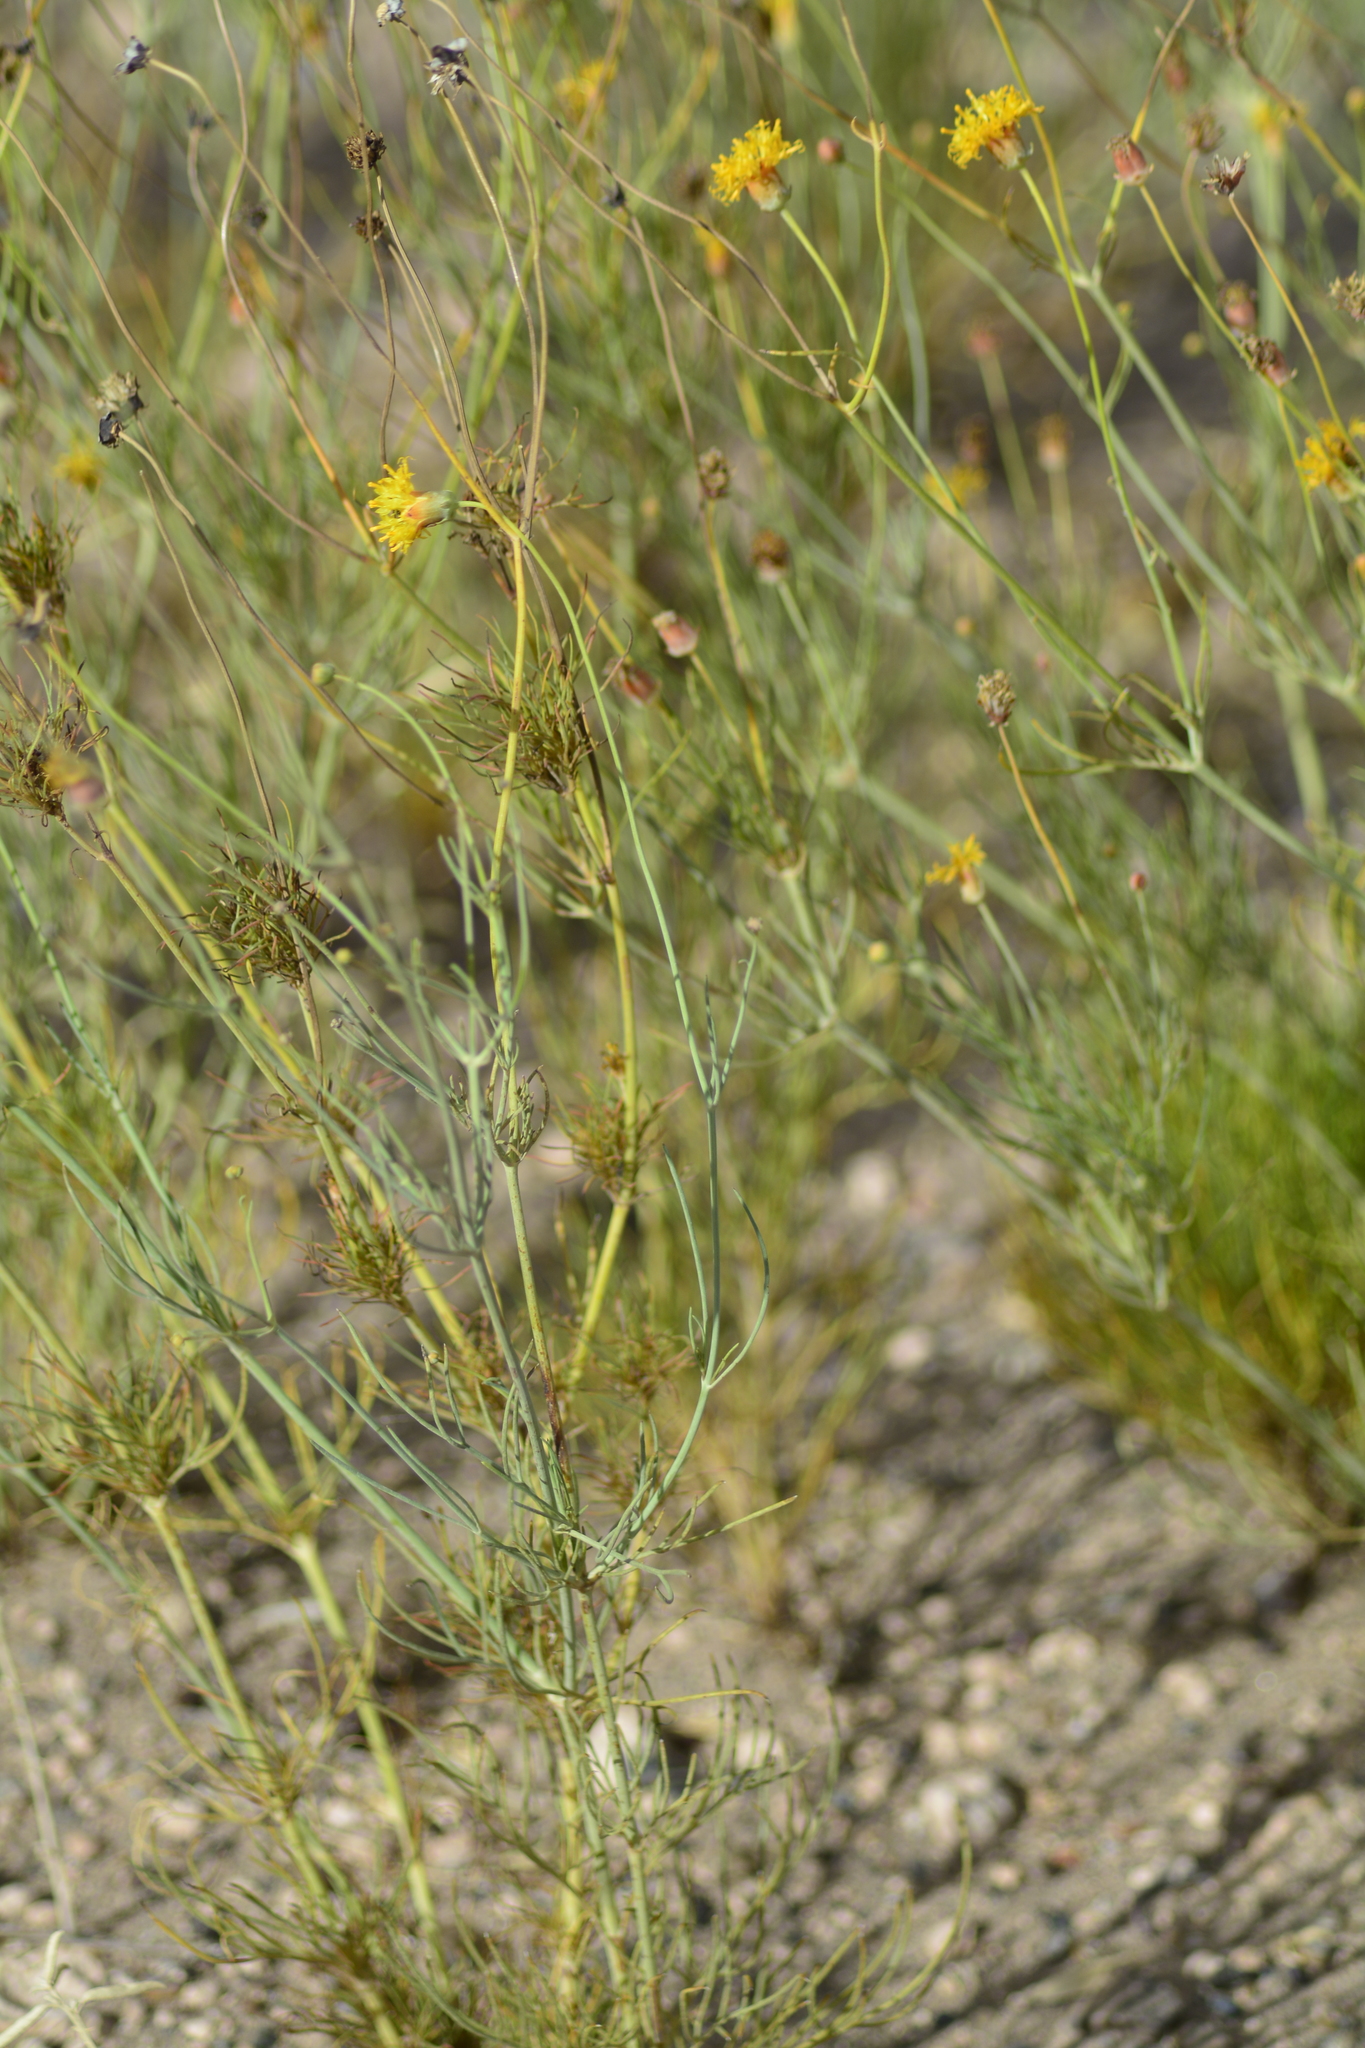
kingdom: Plantae
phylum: Tracheophyta
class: Magnoliopsida
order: Asterales
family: Asteraceae
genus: Thelesperma
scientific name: Thelesperma megapotamicum
